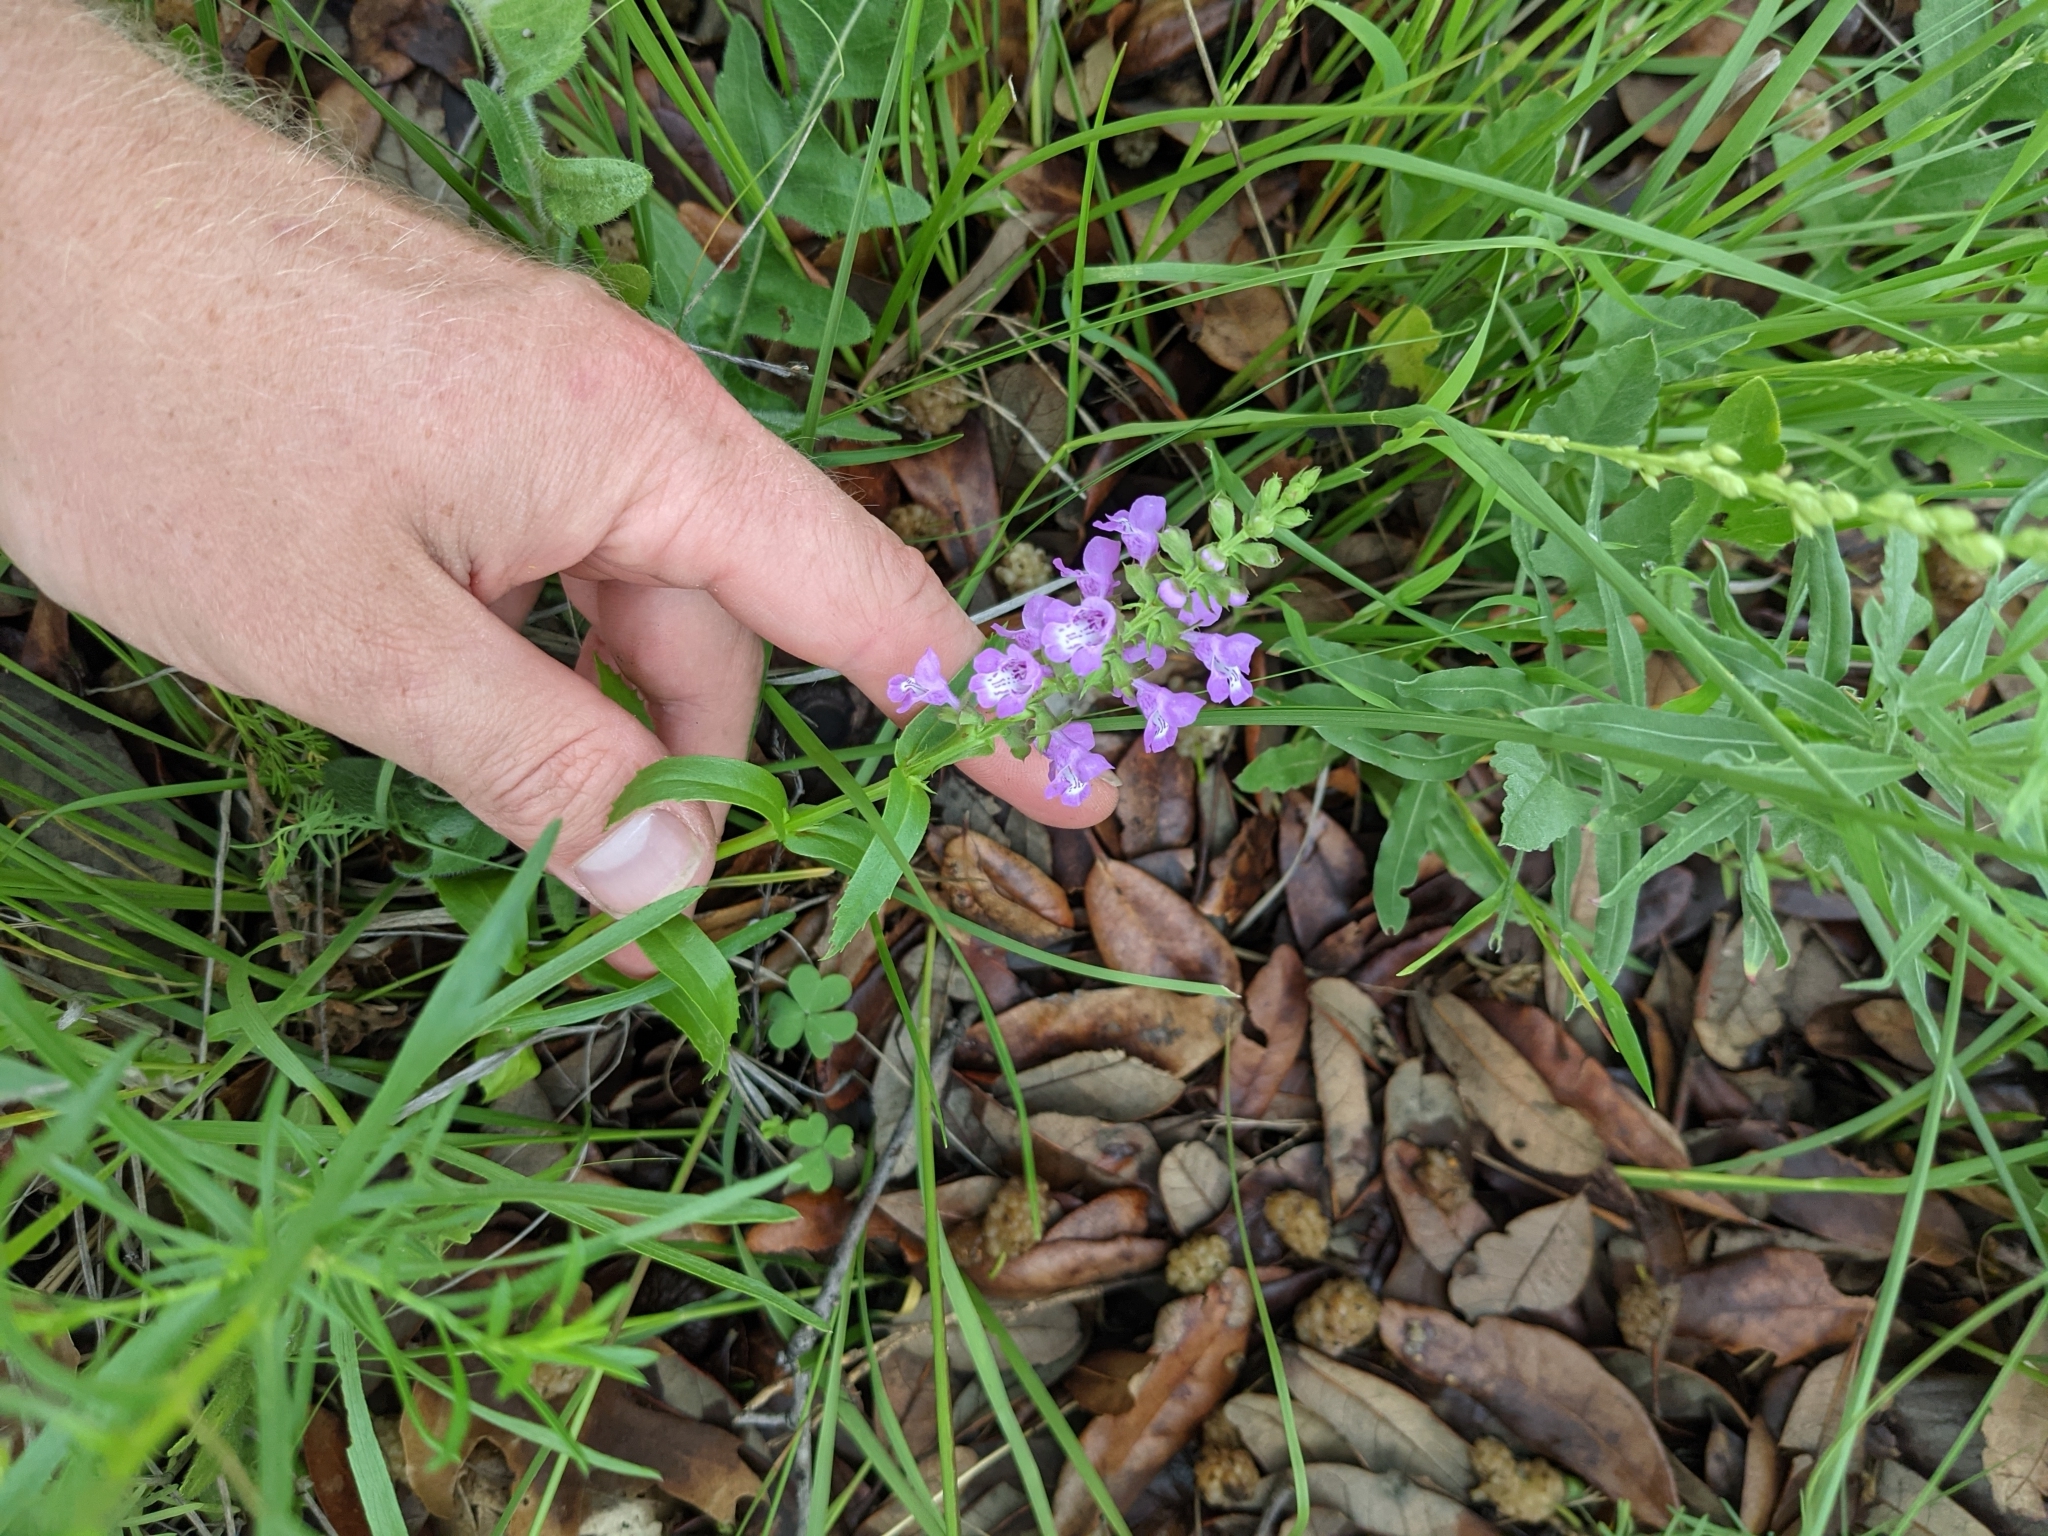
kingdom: Plantae
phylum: Tracheophyta
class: Magnoliopsida
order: Lamiales
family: Lamiaceae
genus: Warnockia
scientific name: Warnockia scutellarioides
